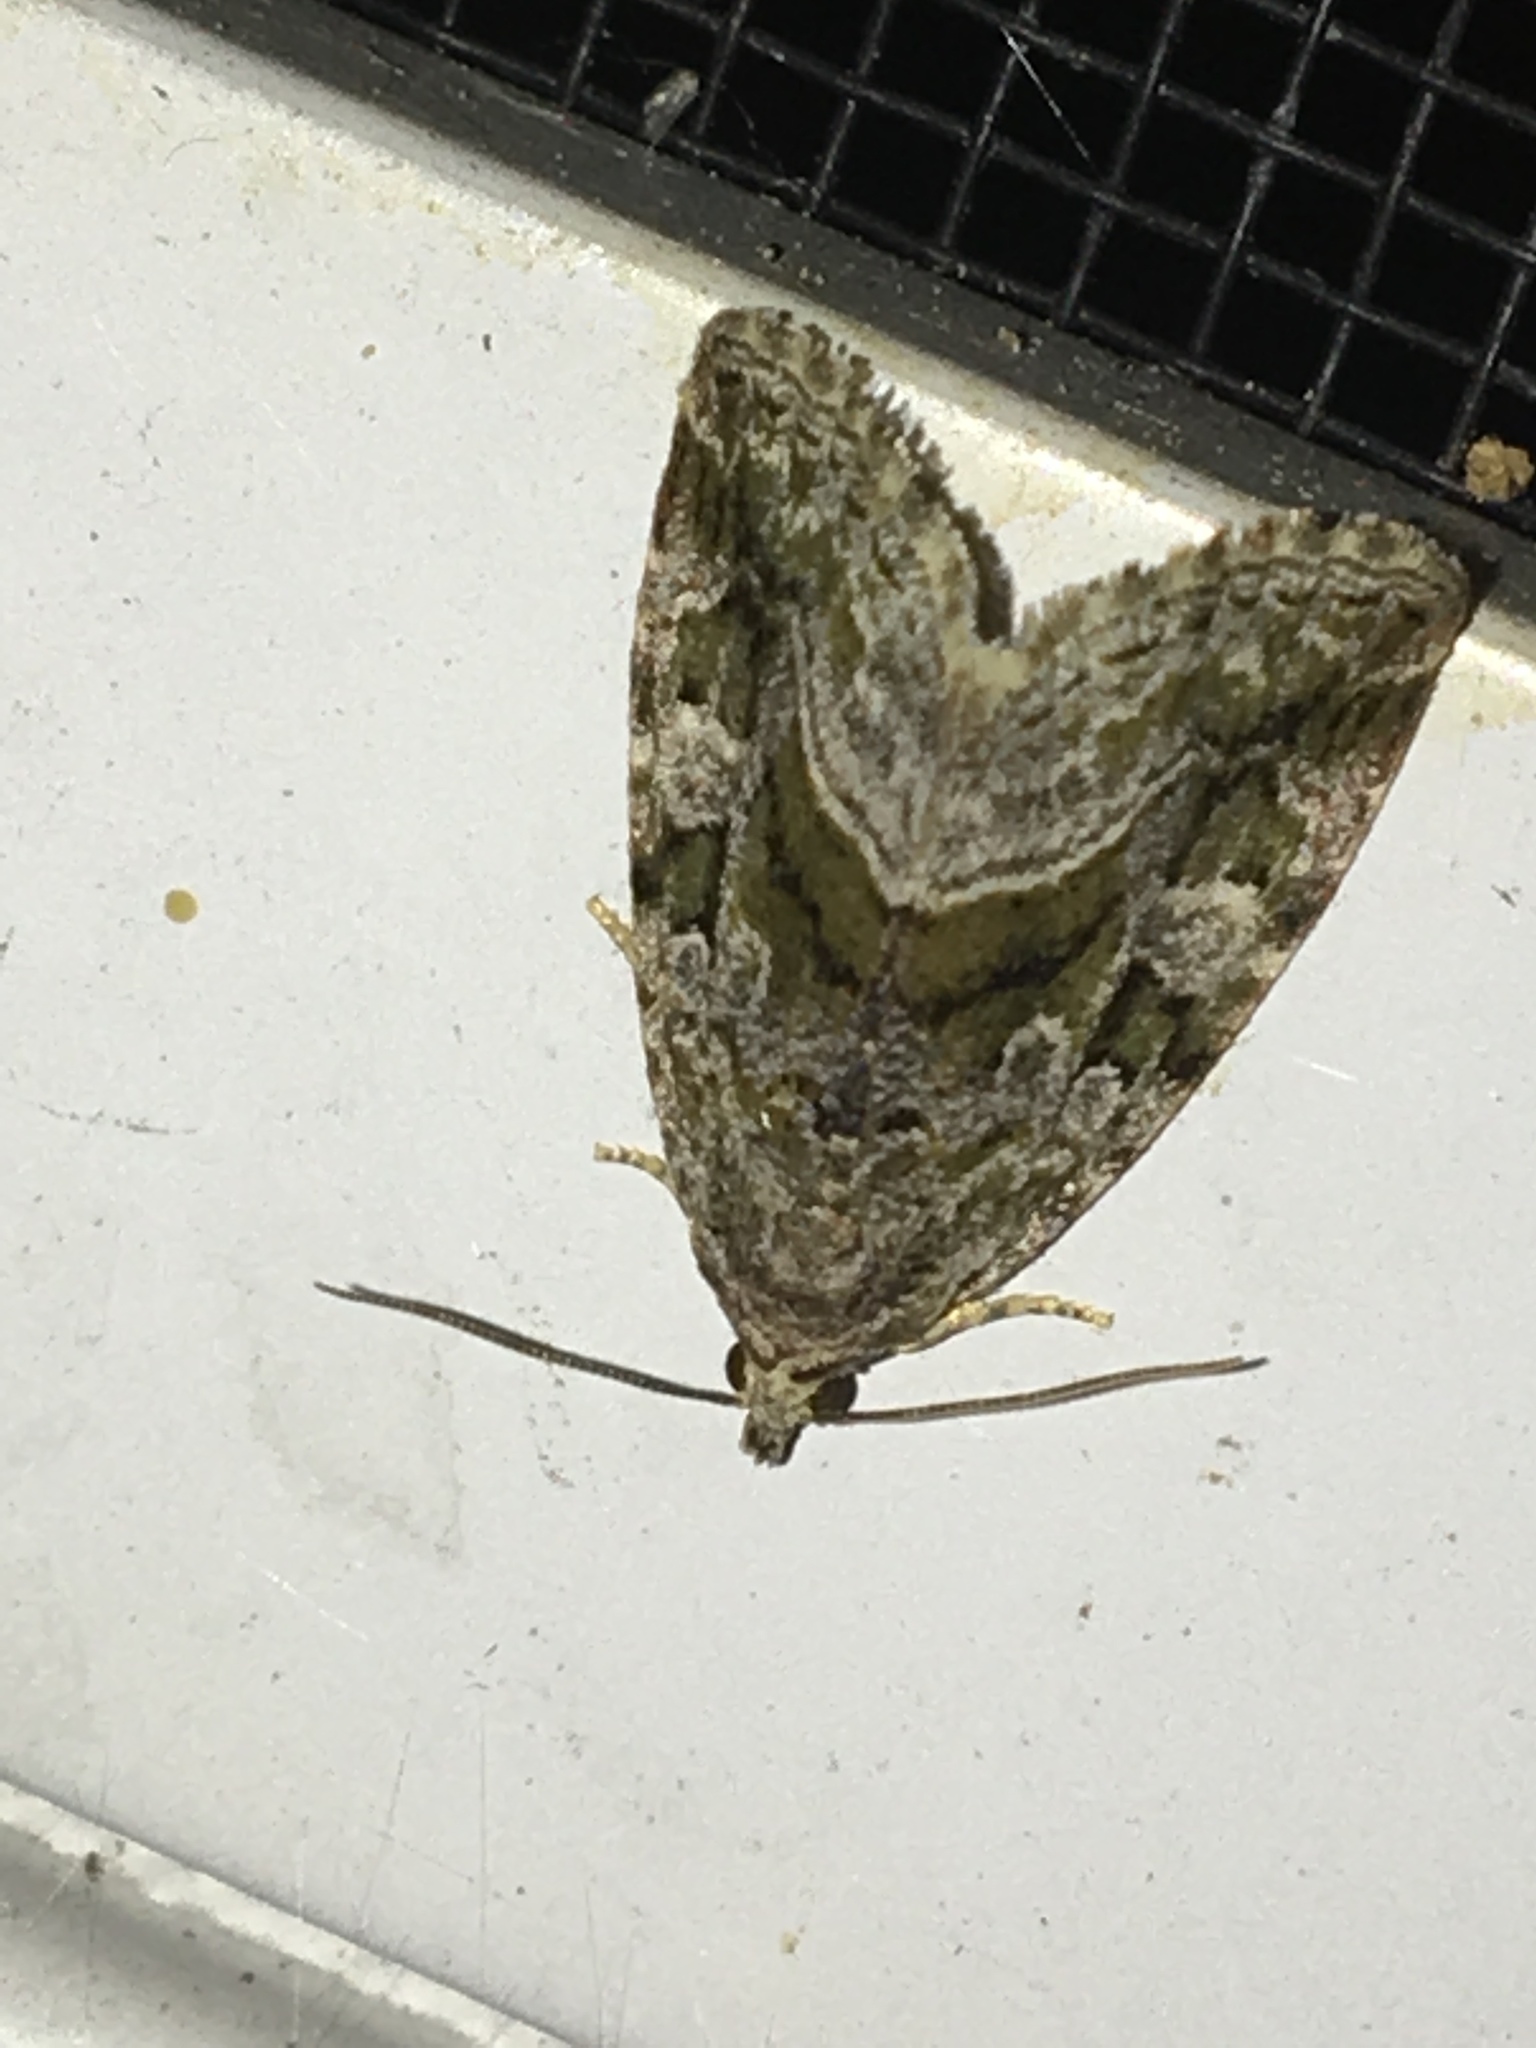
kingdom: Animalia
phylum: Arthropoda
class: Insecta
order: Lepidoptera
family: Noctuidae
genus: Protodeltote
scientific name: Protodeltote muscosula
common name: Large mossy glyph
